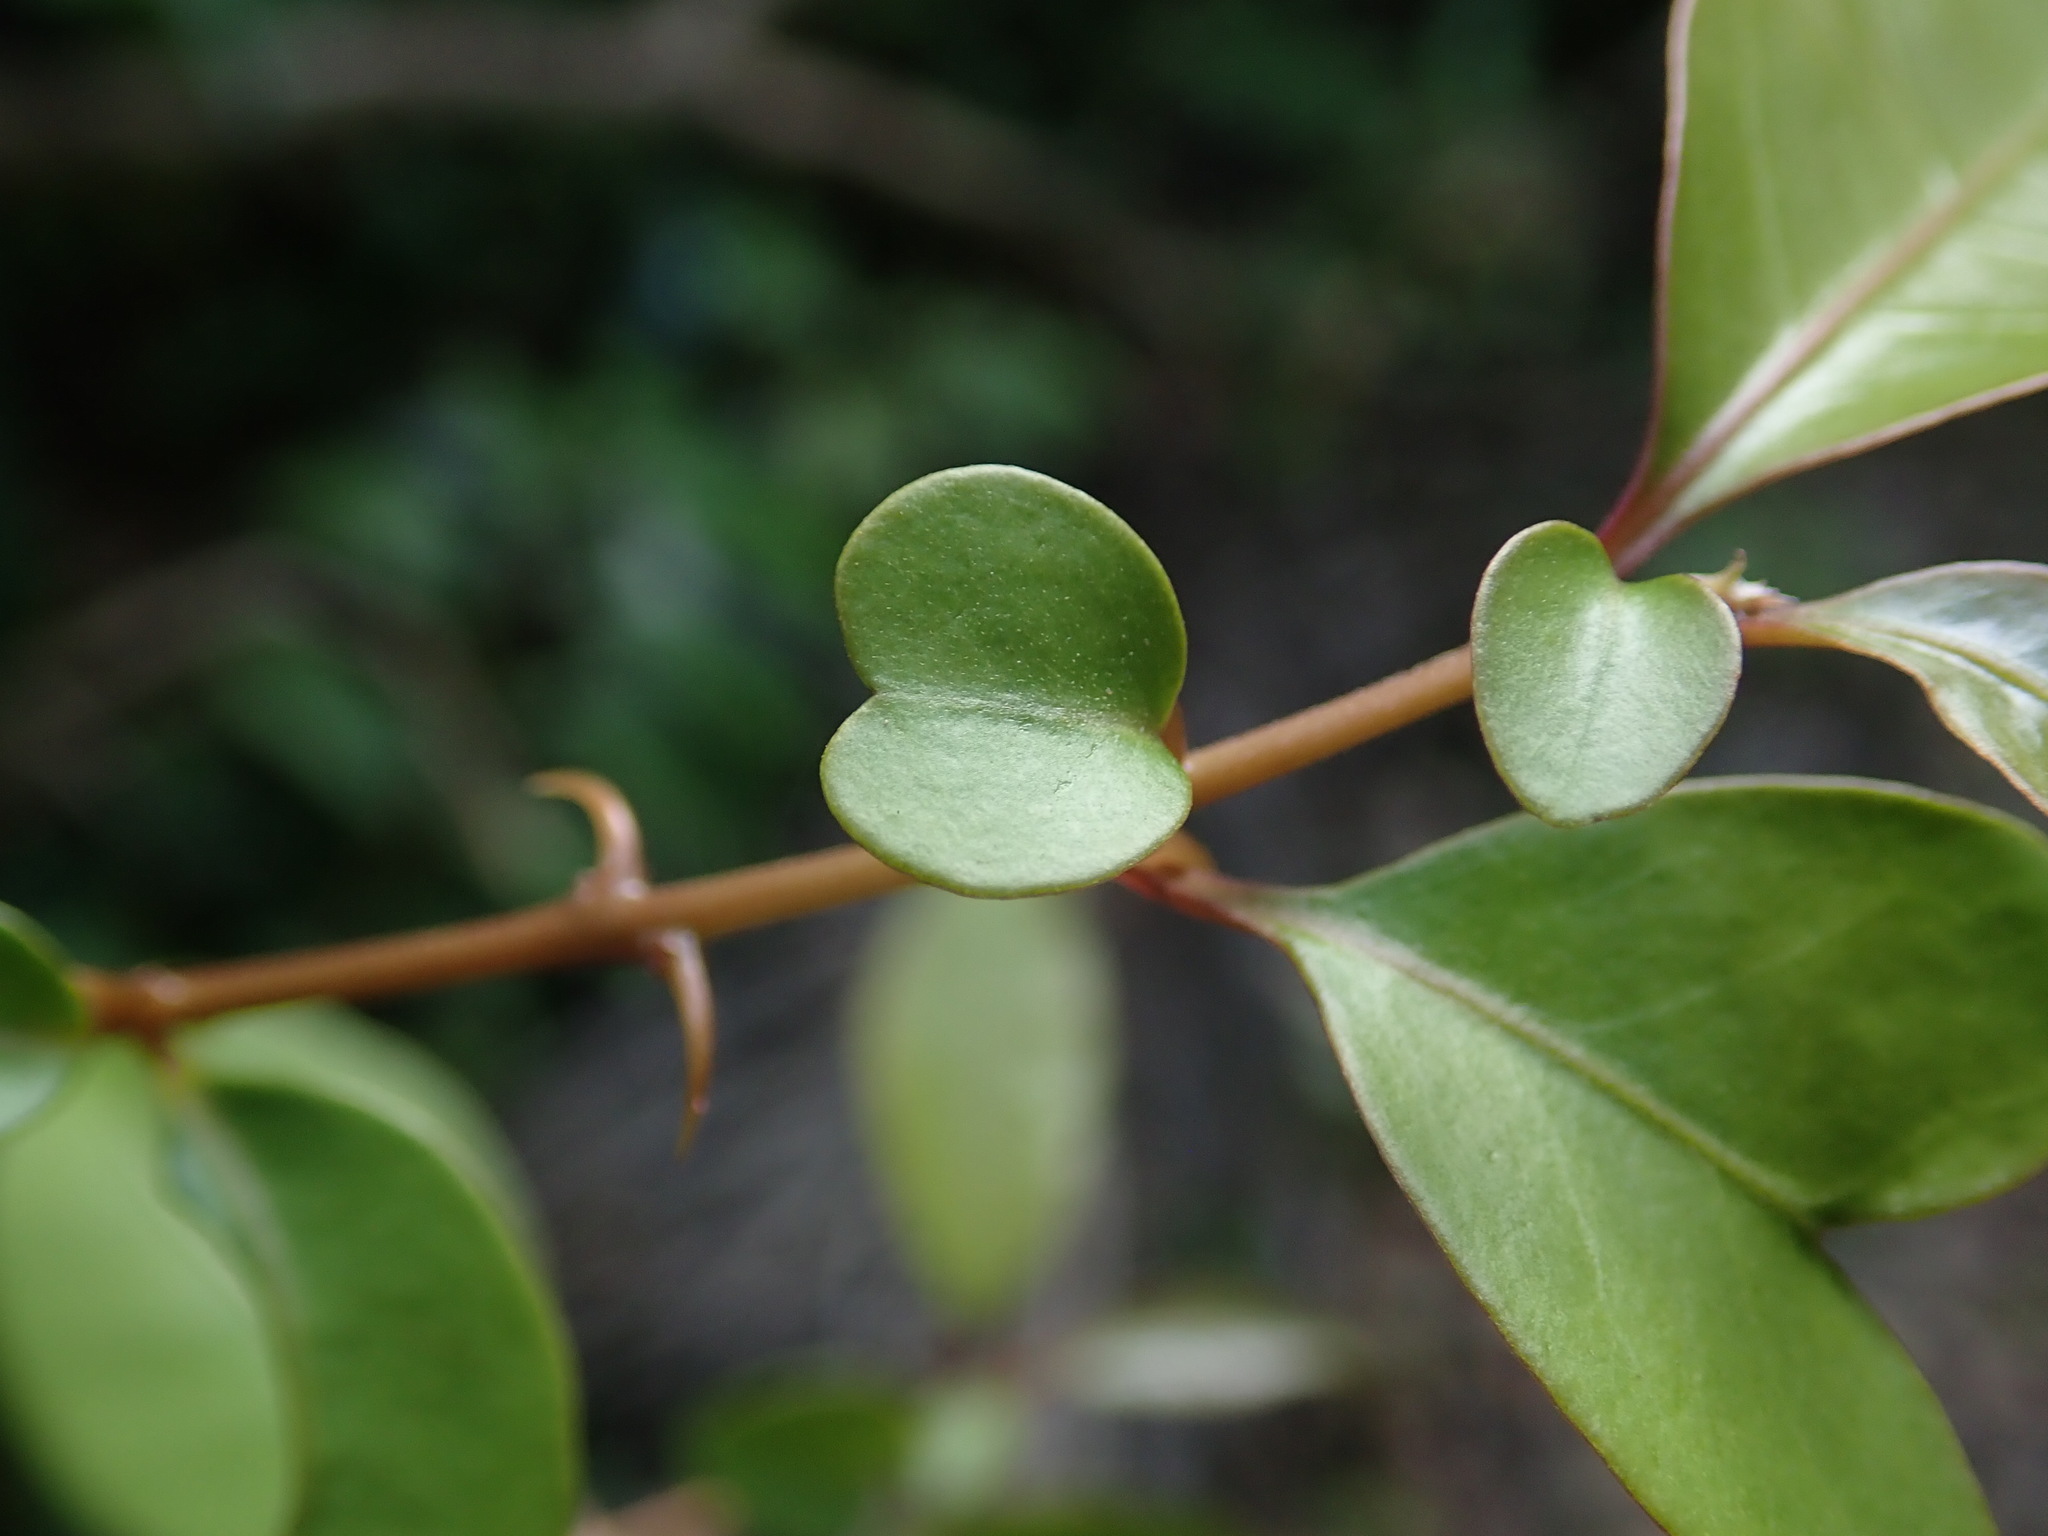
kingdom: Plantae
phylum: Tracheophyta
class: Magnoliopsida
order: Caryophyllales
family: Nyctaginaceae
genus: Pisonia
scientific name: Pisonia aculeata
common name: Cockspur vine
